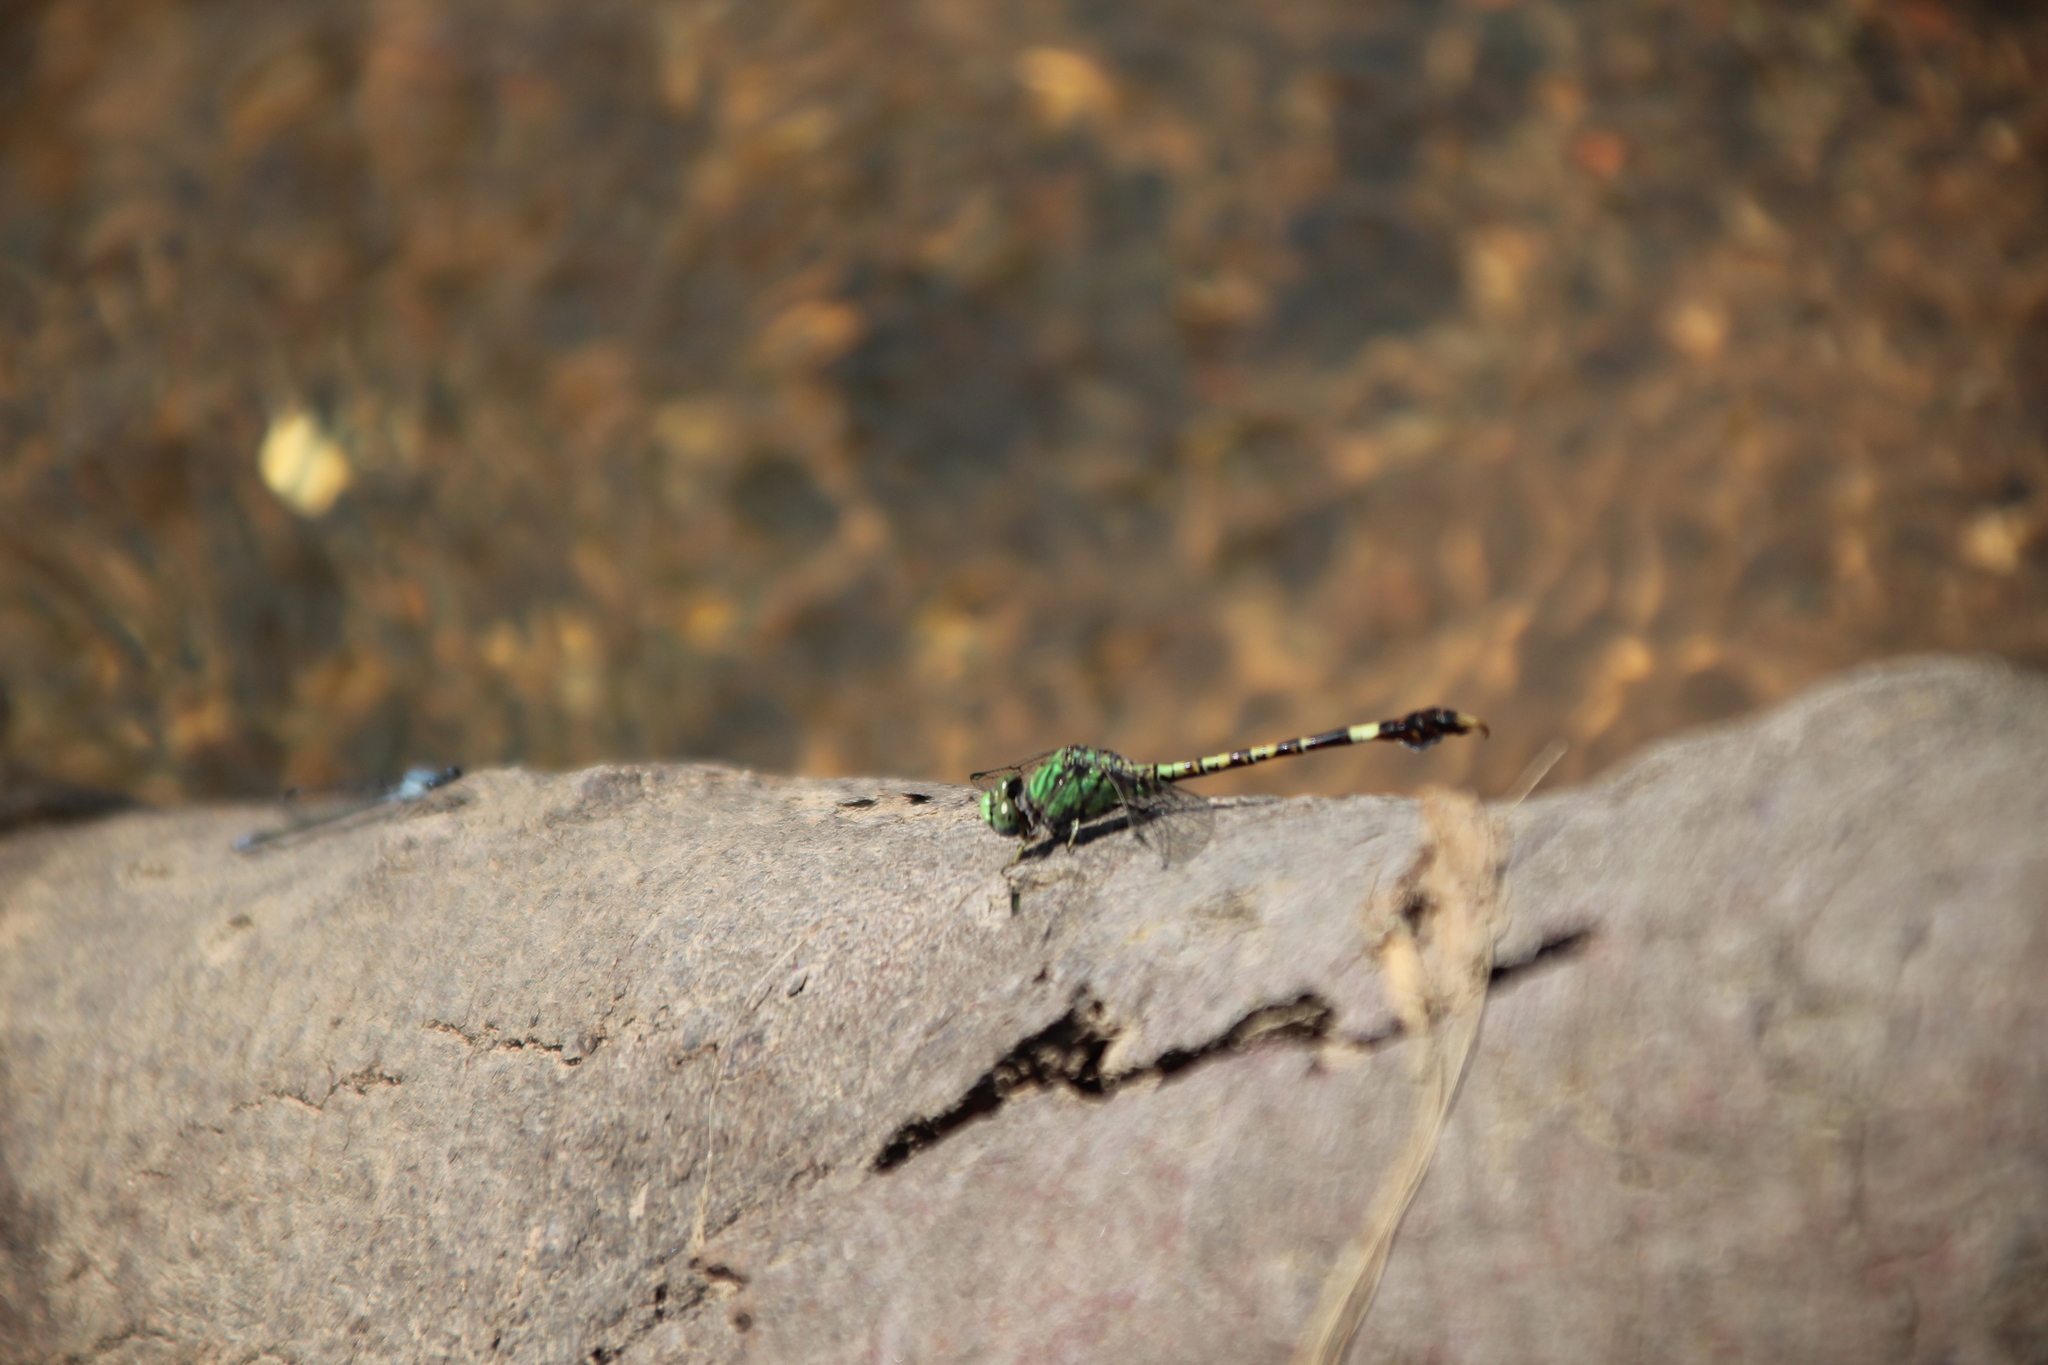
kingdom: Animalia
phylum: Arthropoda
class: Insecta
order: Odonata
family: Gomphidae
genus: Paragomphus
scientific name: Paragomphus genei
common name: Common hooktail
